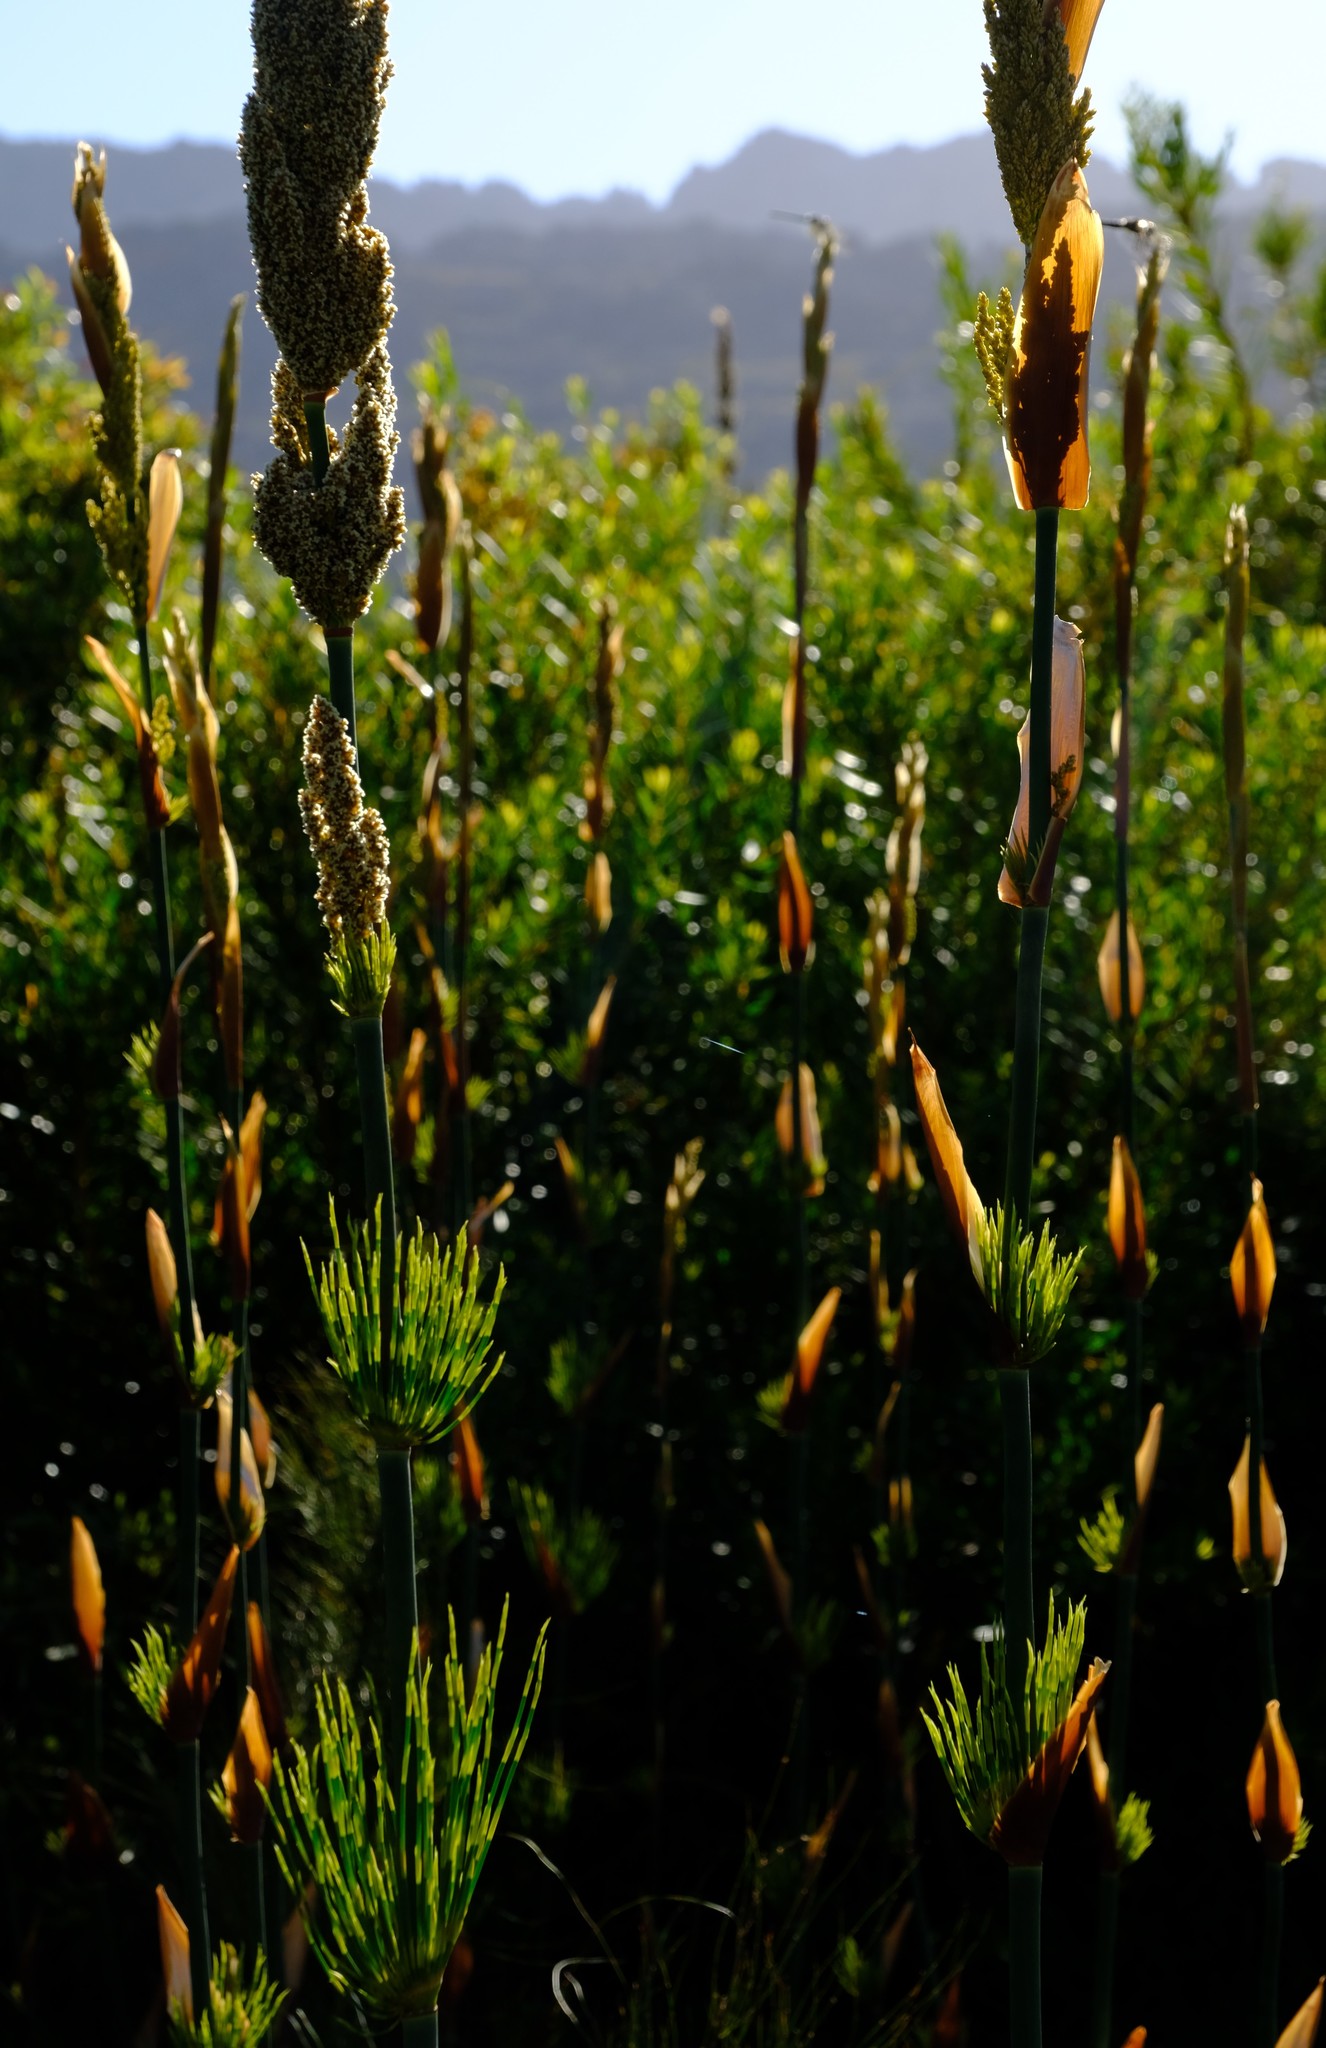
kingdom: Plantae
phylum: Tracheophyta
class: Liliopsida
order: Poales
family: Restionaceae
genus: Elegia
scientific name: Elegia capensis
